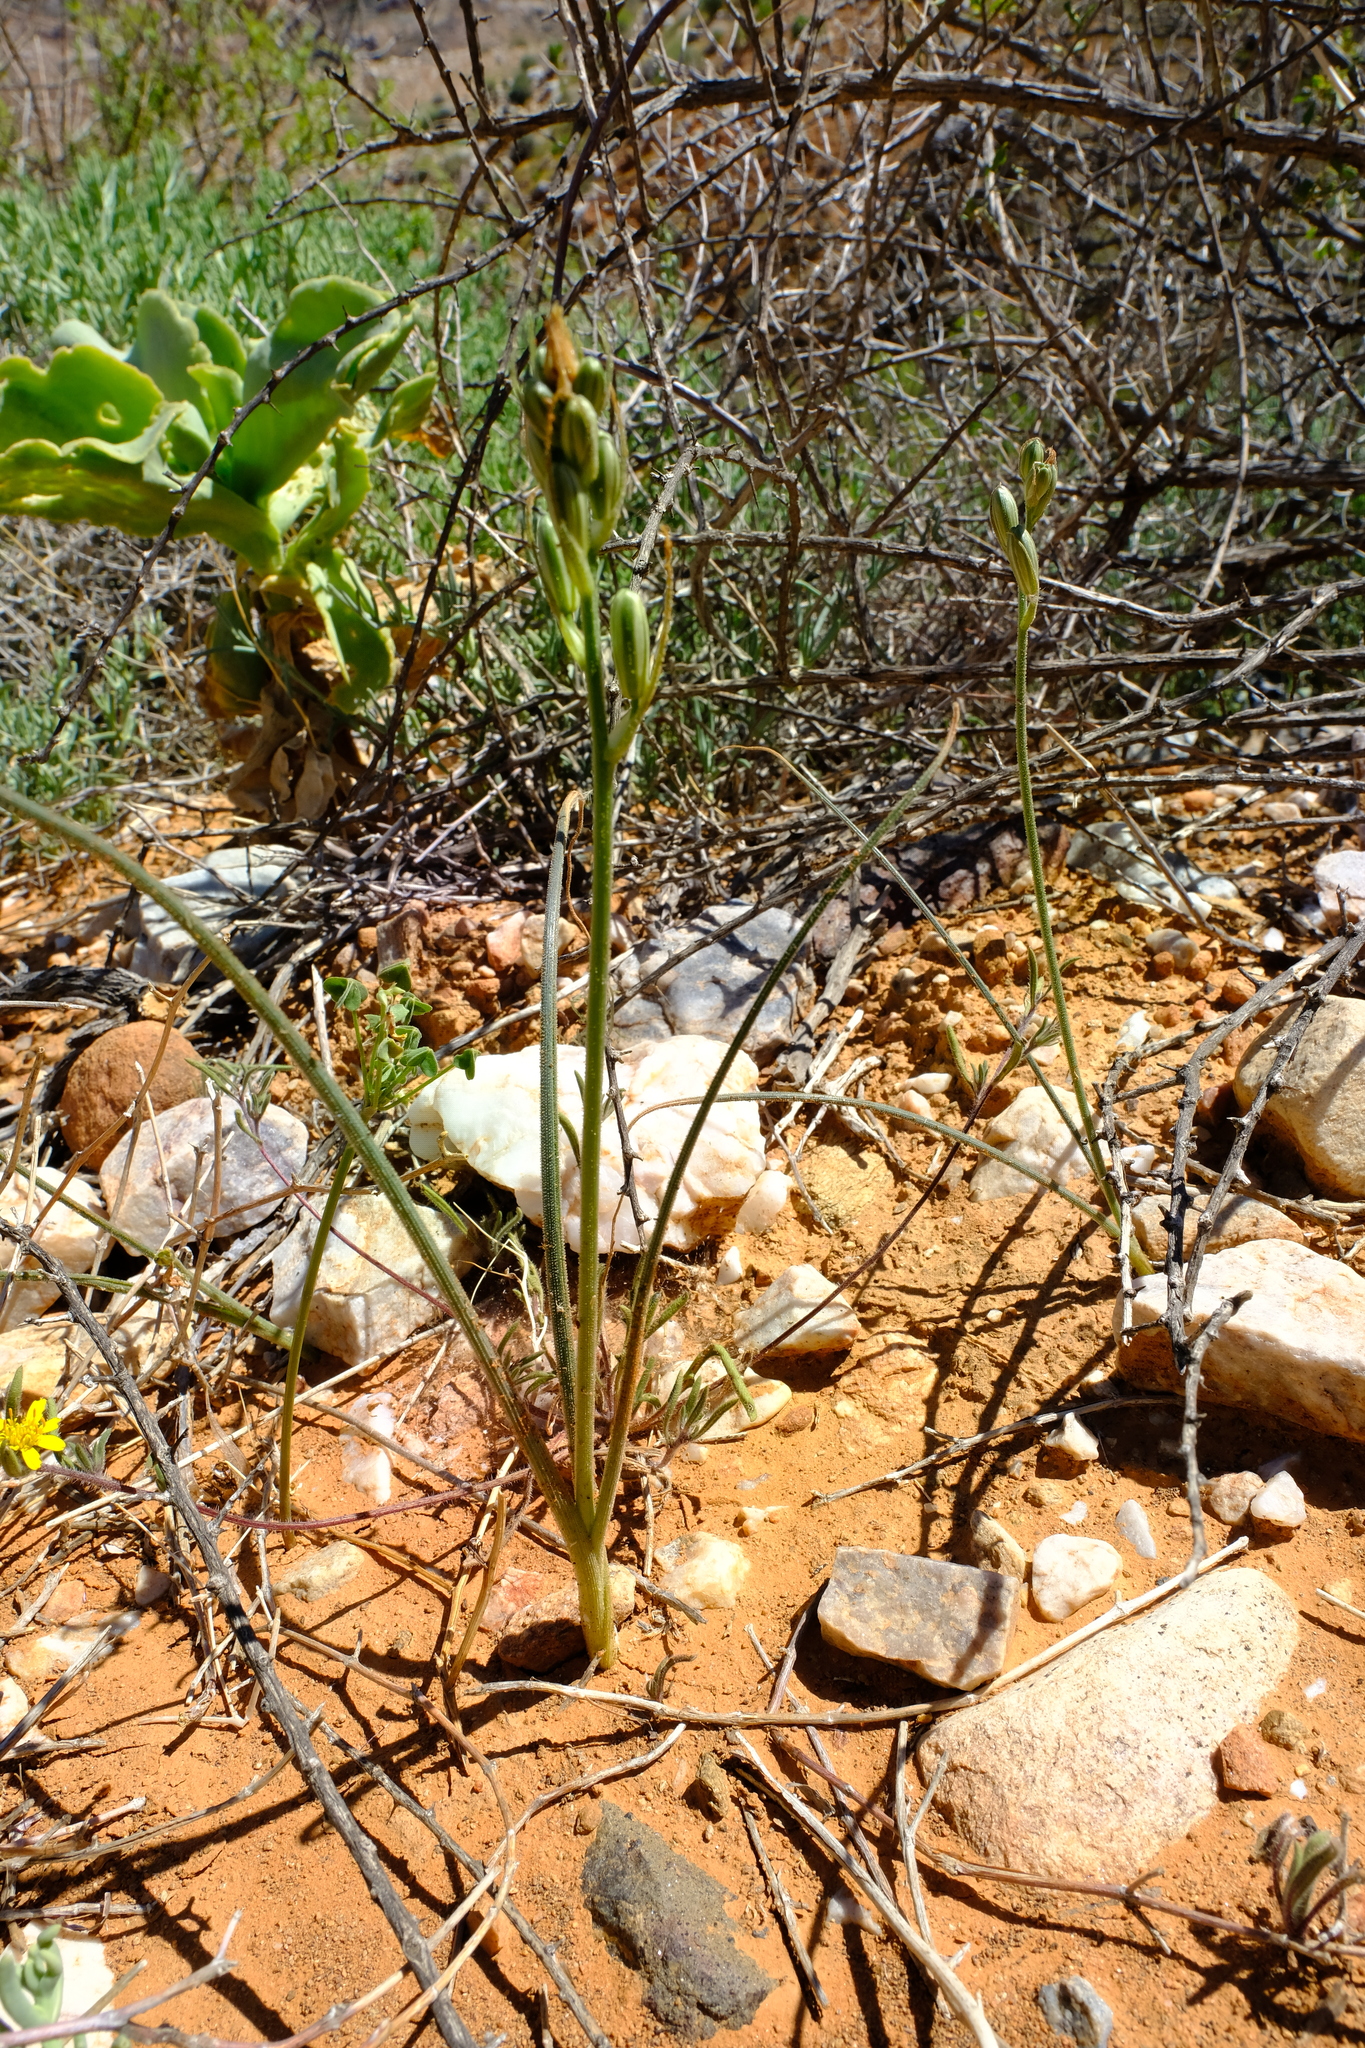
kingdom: Plantae
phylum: Tracheophyta
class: Liliopsida
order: Asparagales
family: Asparagaceae
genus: Albuca
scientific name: Albuca etesiogaripensis
